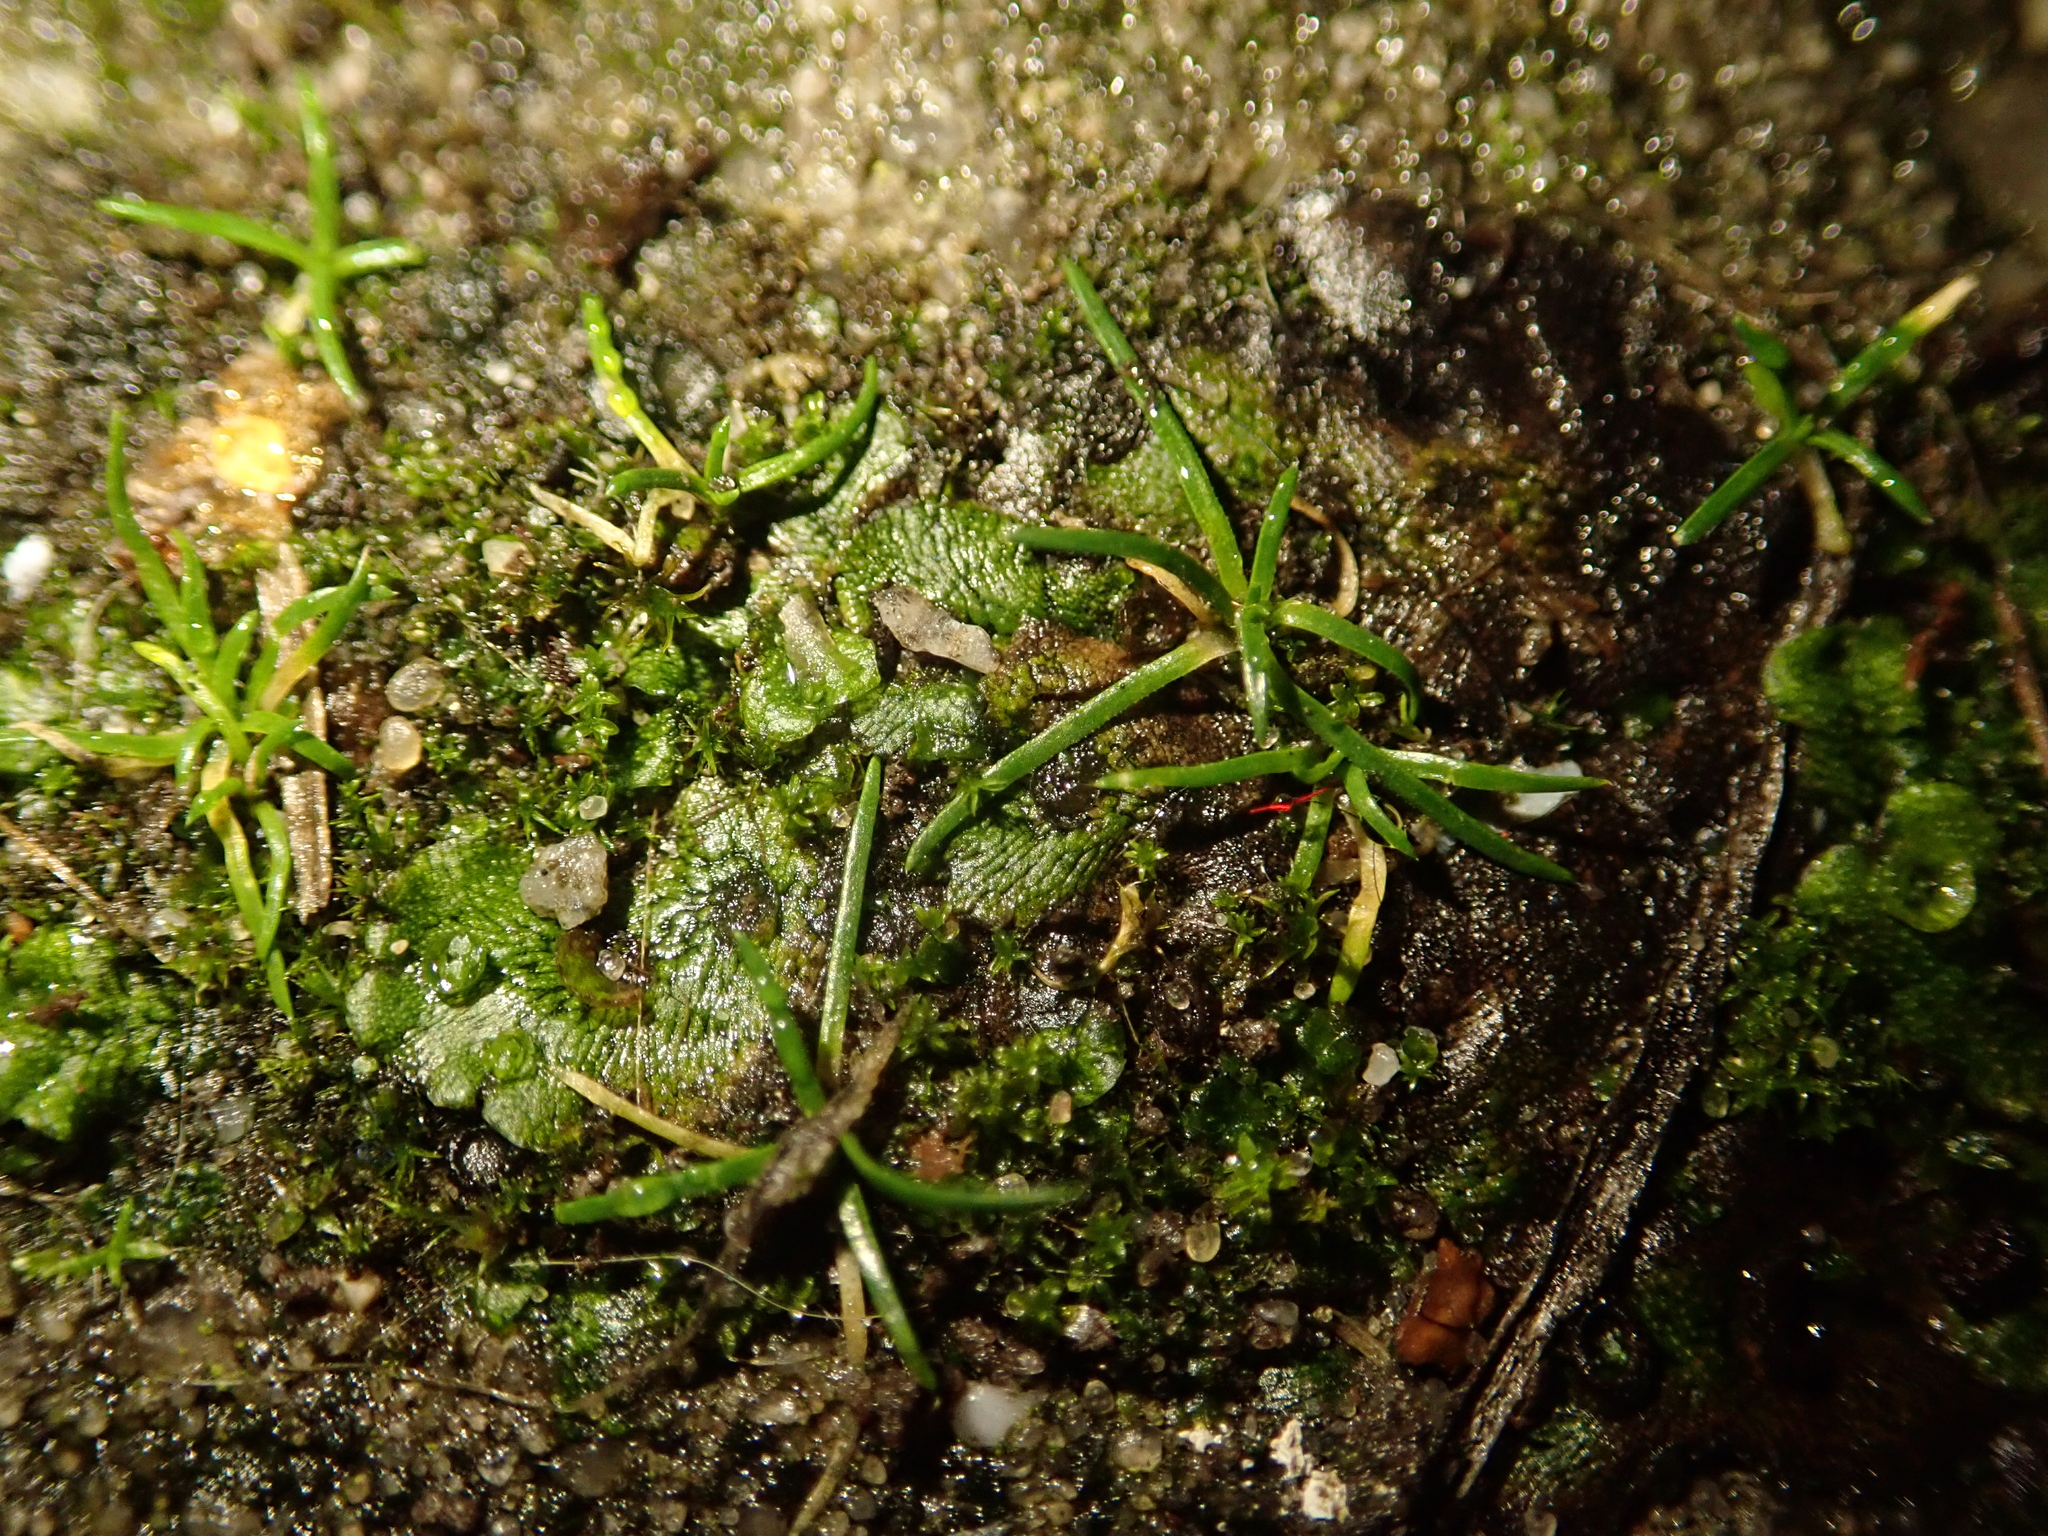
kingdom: Plantae
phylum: Tracheophyta
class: Magnoliopsida
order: Caryophyllales
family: Caryophyllaceae
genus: Sagina
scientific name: Sagina procumbens
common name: Procumbent pearlwort
